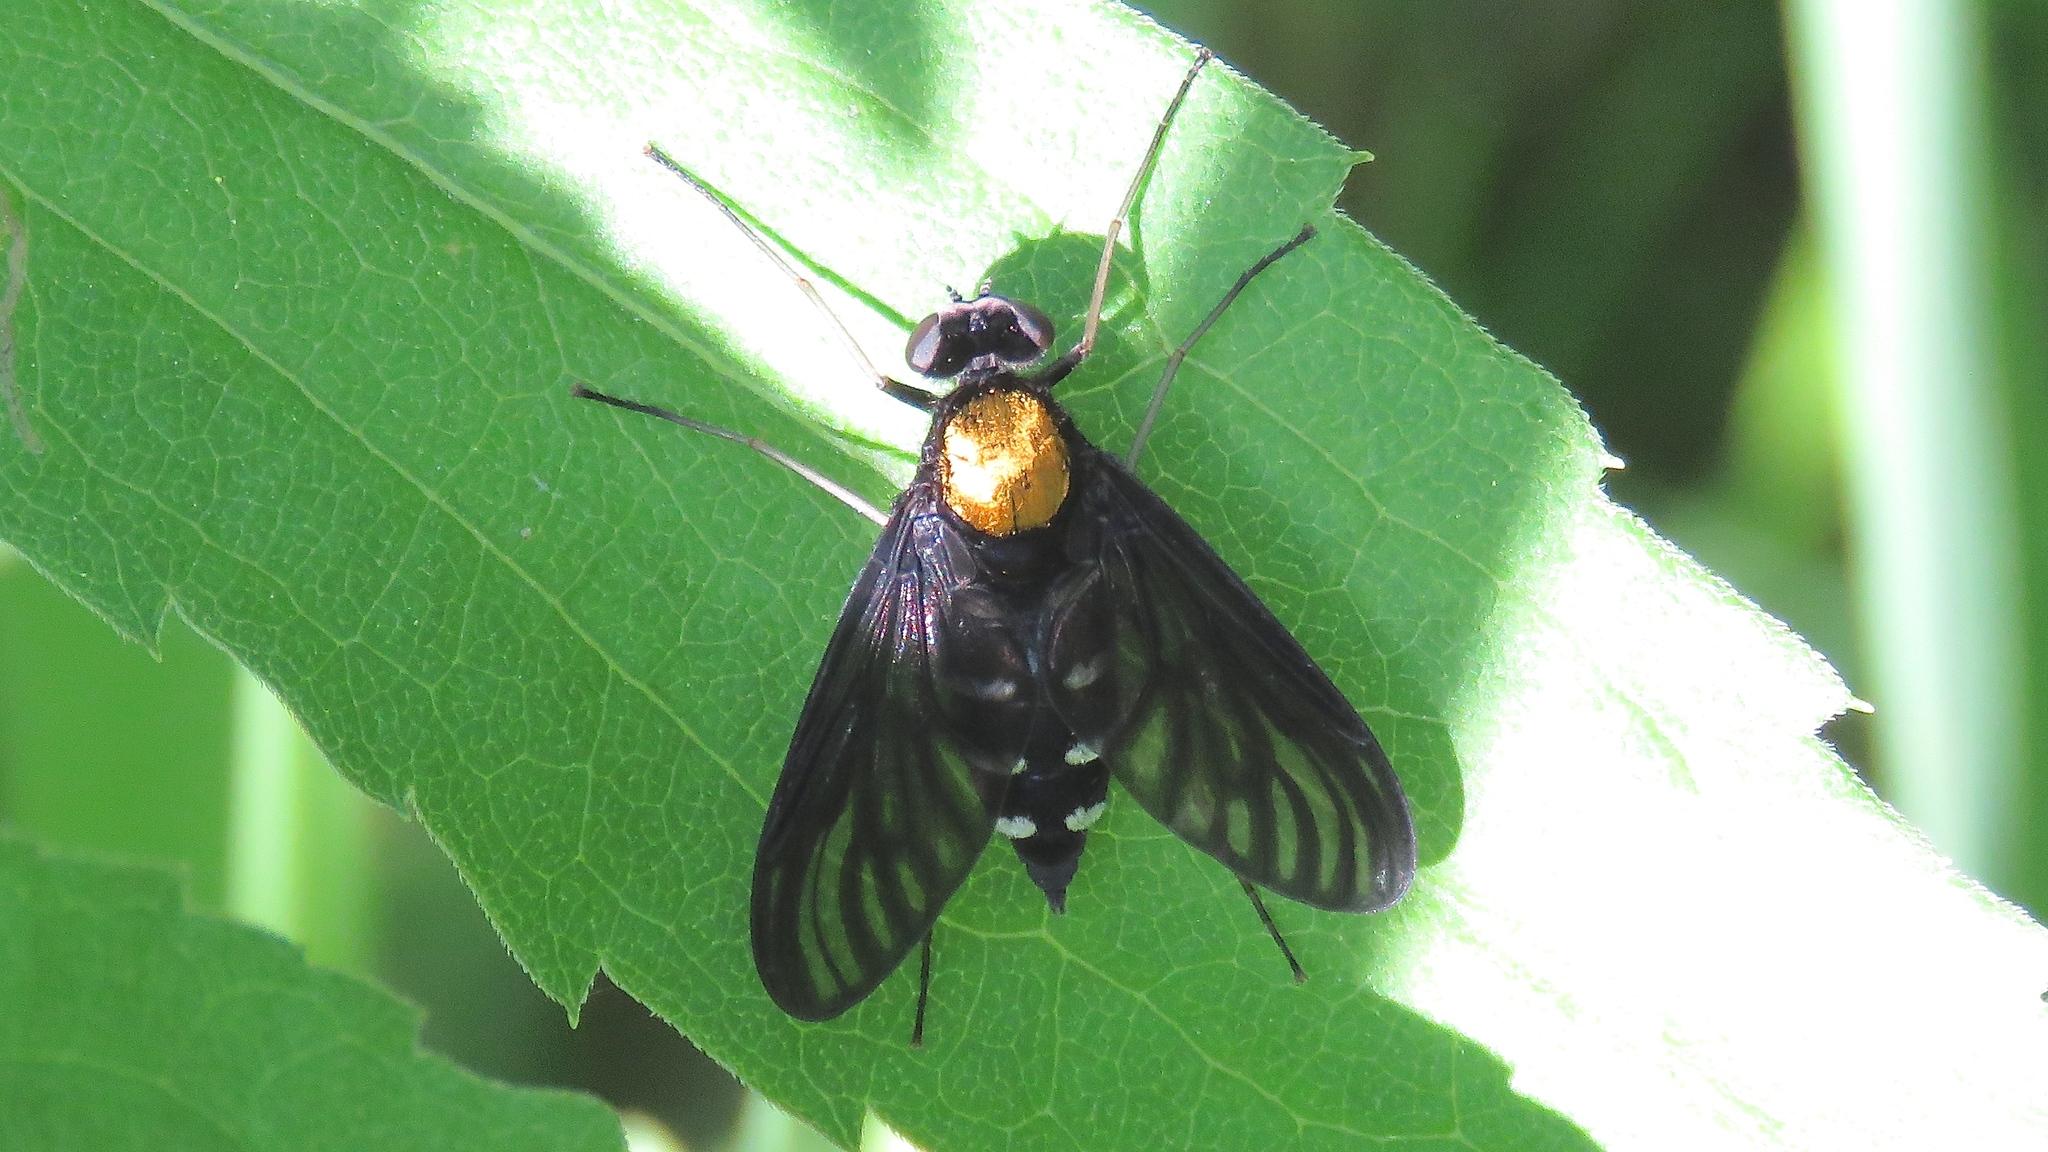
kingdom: Animalia
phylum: Arthropoda
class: Insecta
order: Diptera
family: Rhagionidae
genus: Chrysopilus
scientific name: Chrysopilus thoracicus
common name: Golden-backed snipe fly
